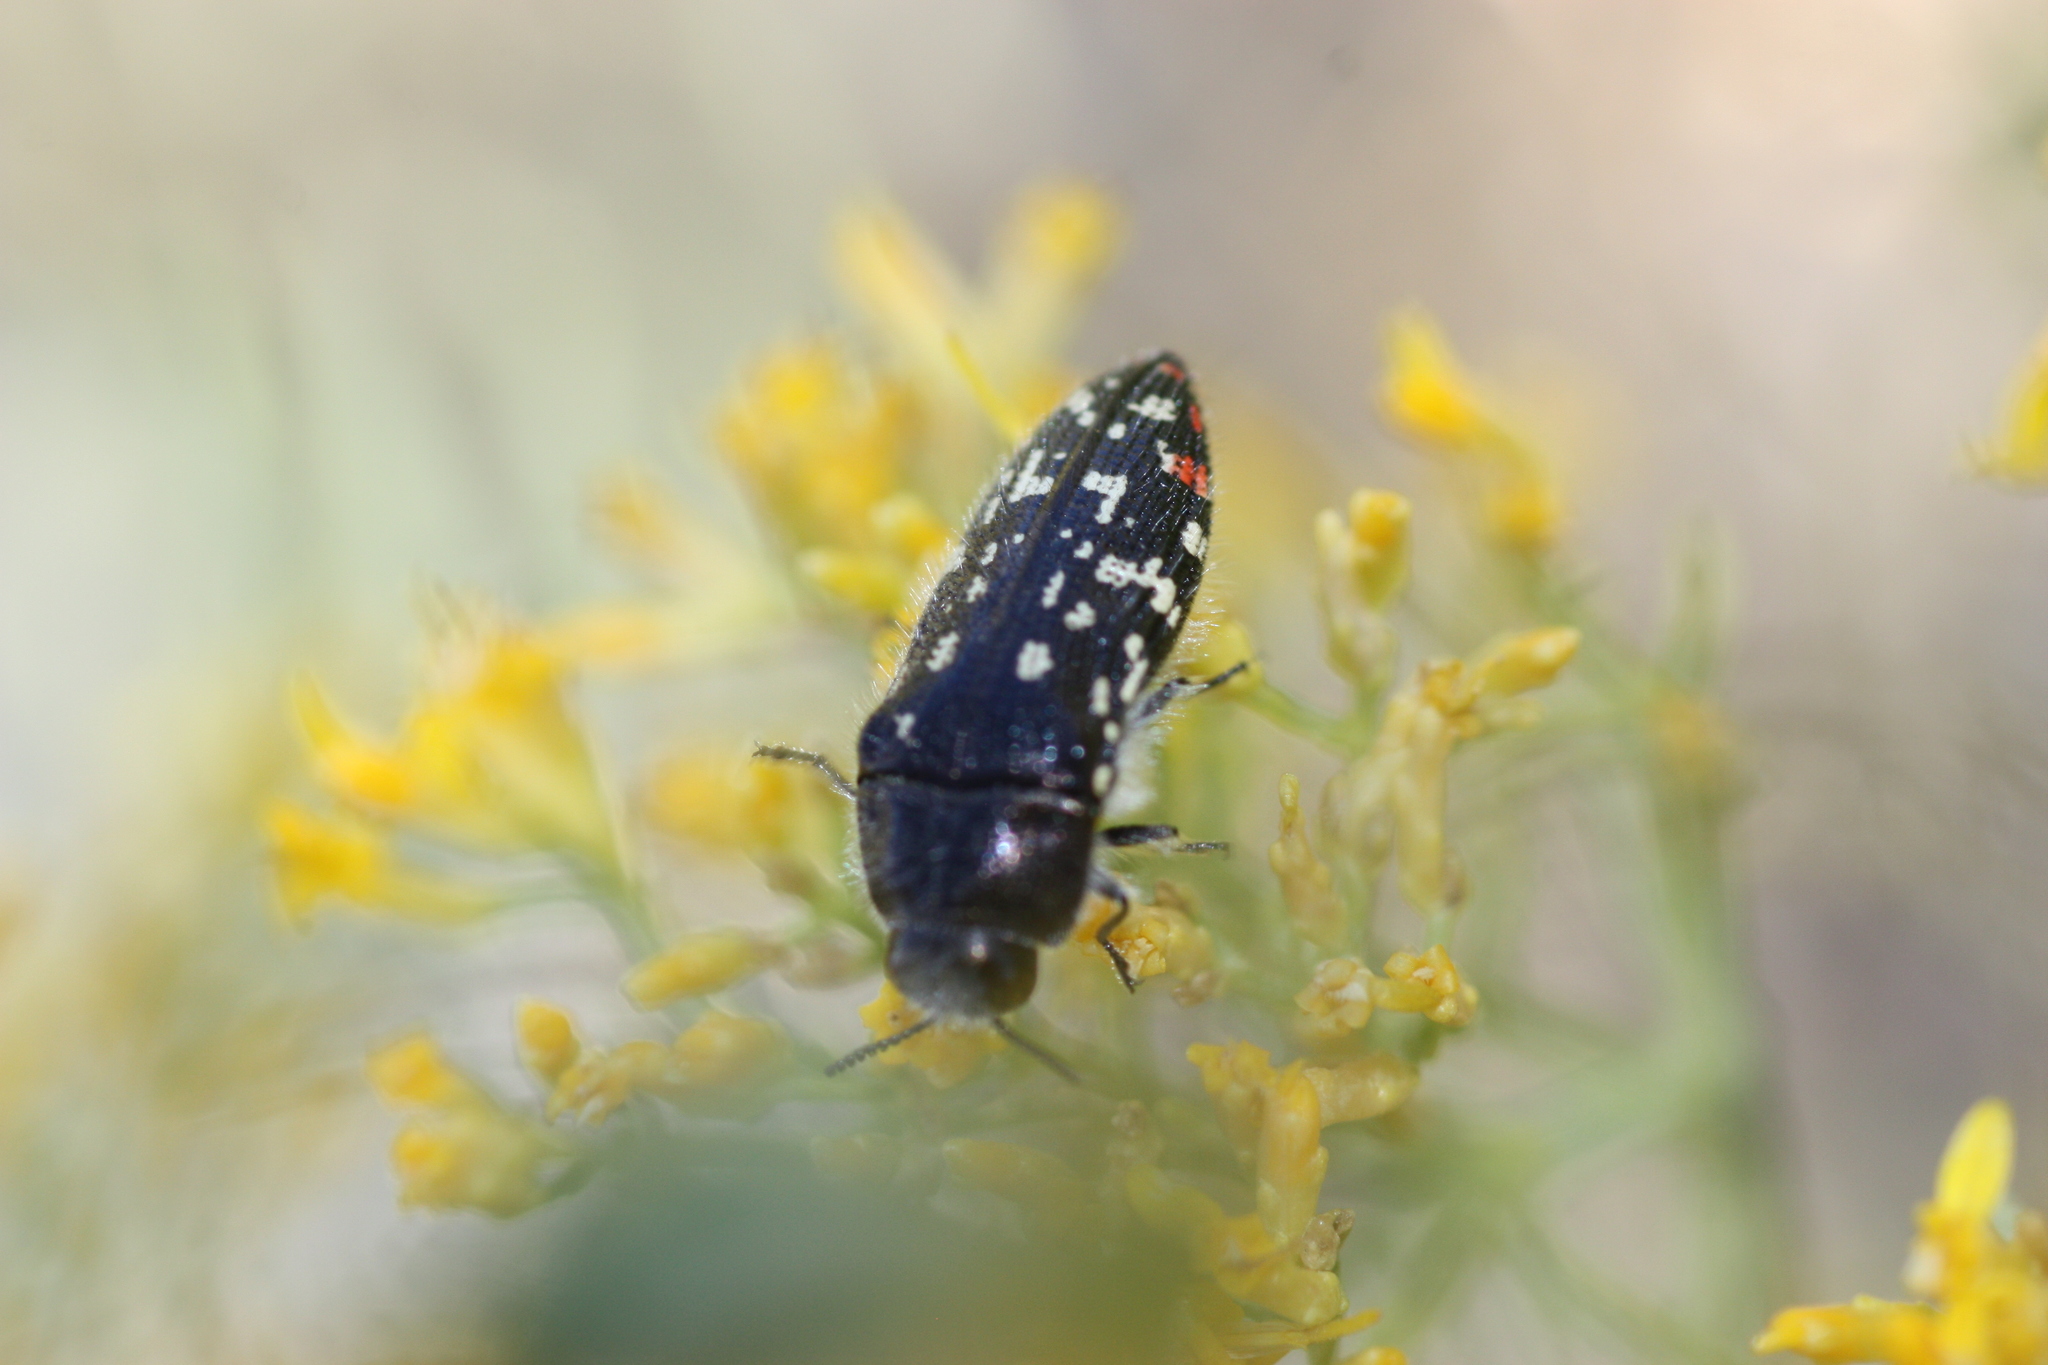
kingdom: Animalia
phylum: Arthropoda
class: Insecta
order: Coleoptera
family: Buprestidae
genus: Acmaeodera
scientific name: Acmaeodera rubronotata
